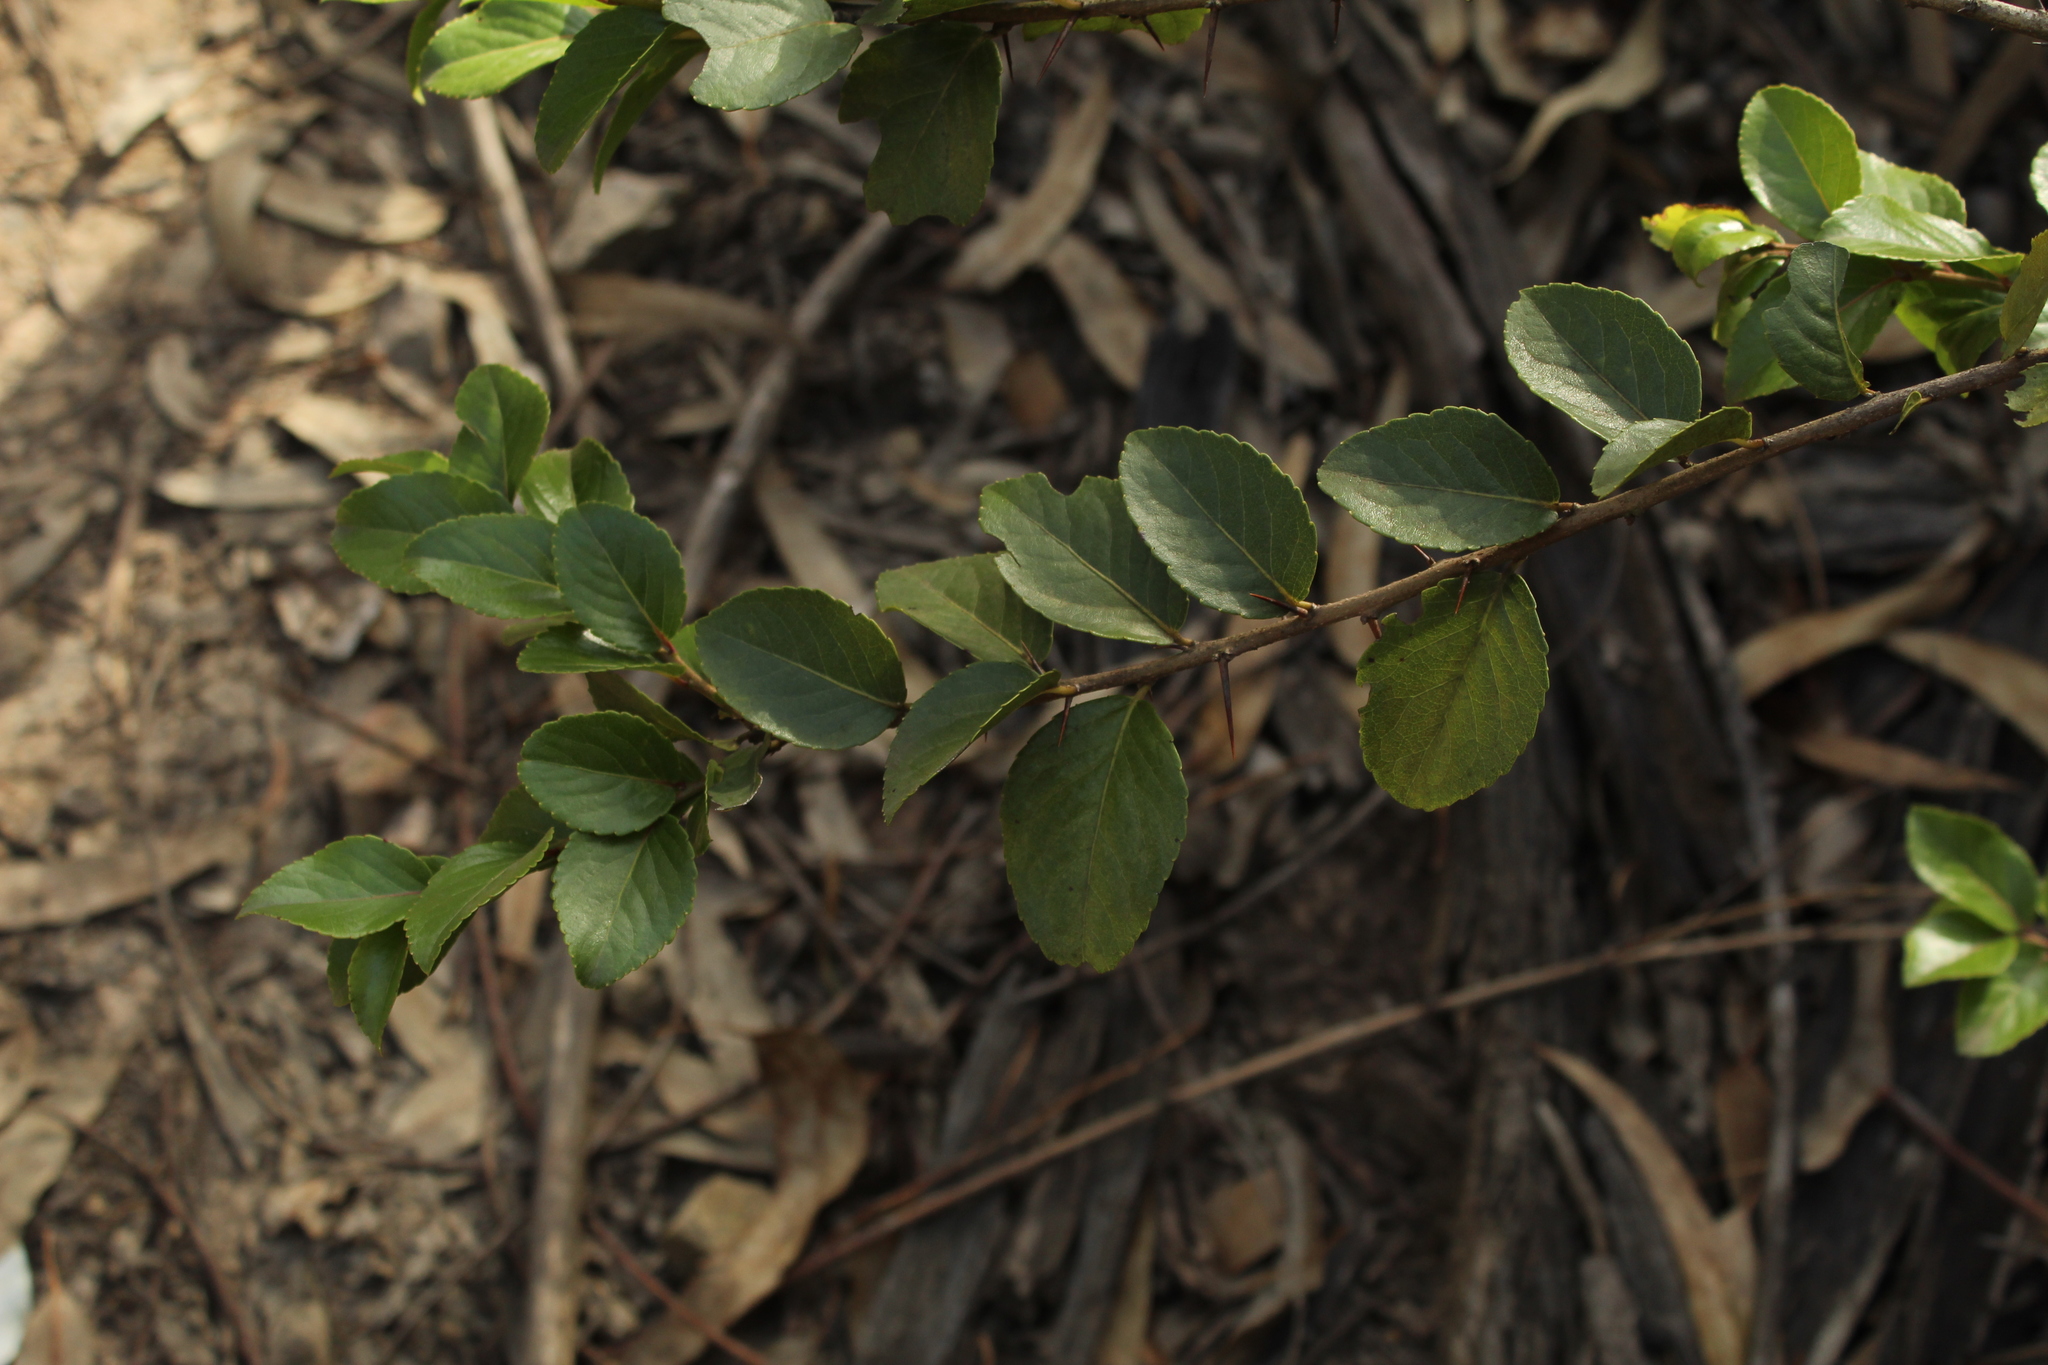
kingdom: Plantae
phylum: Tracheophyta
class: Magnoliopsida
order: Malpighiales
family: Salicaceae
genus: Xylosma
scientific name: Xylosma spiculifera
